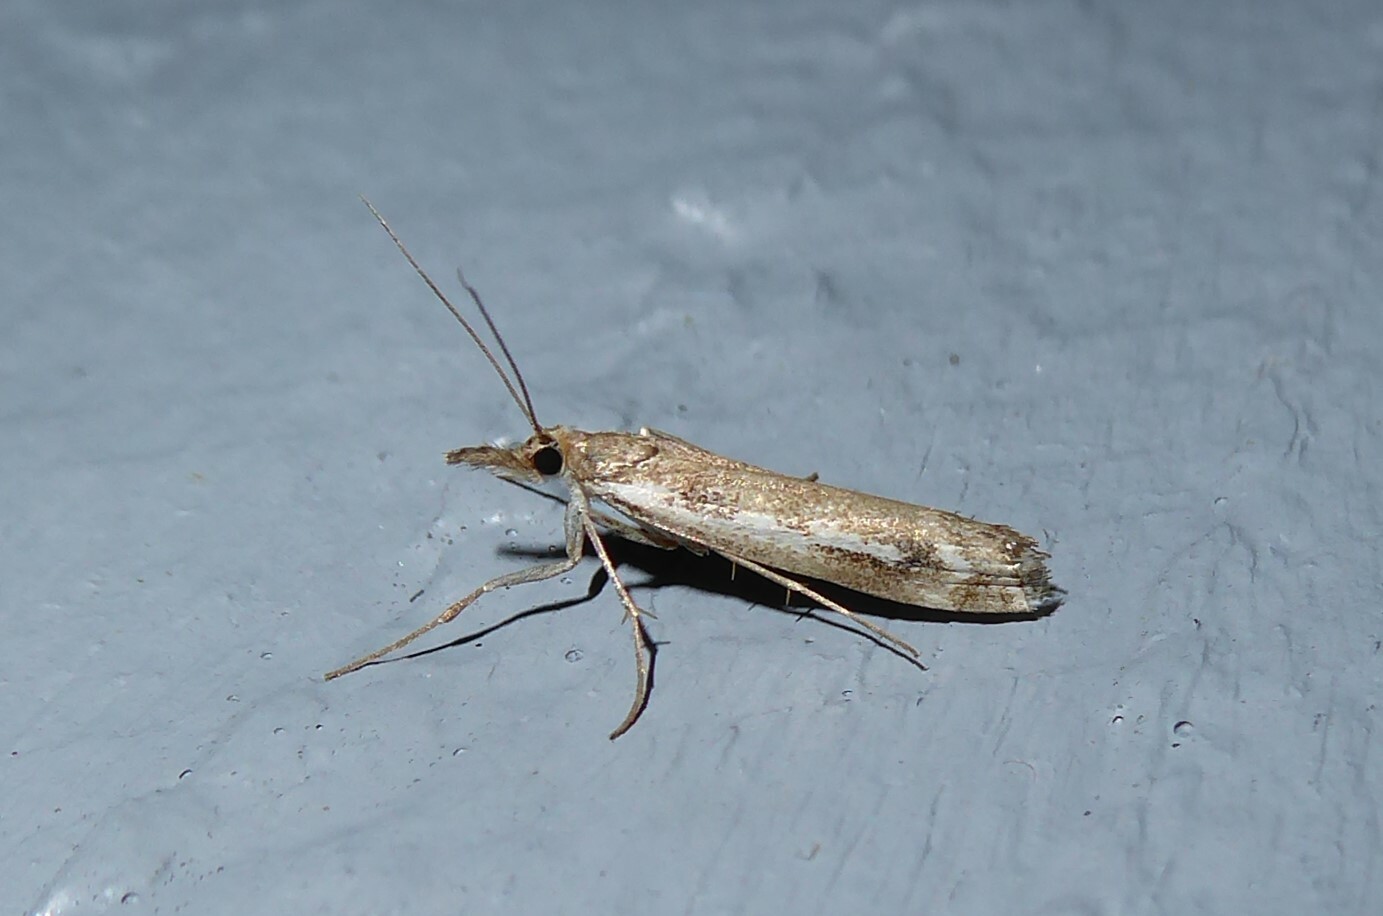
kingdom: Animalia
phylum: Arthropoda
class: Insecta
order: Lepidoptera
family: Crambidae
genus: Orocrambus
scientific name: Orocrambus vulgaris
